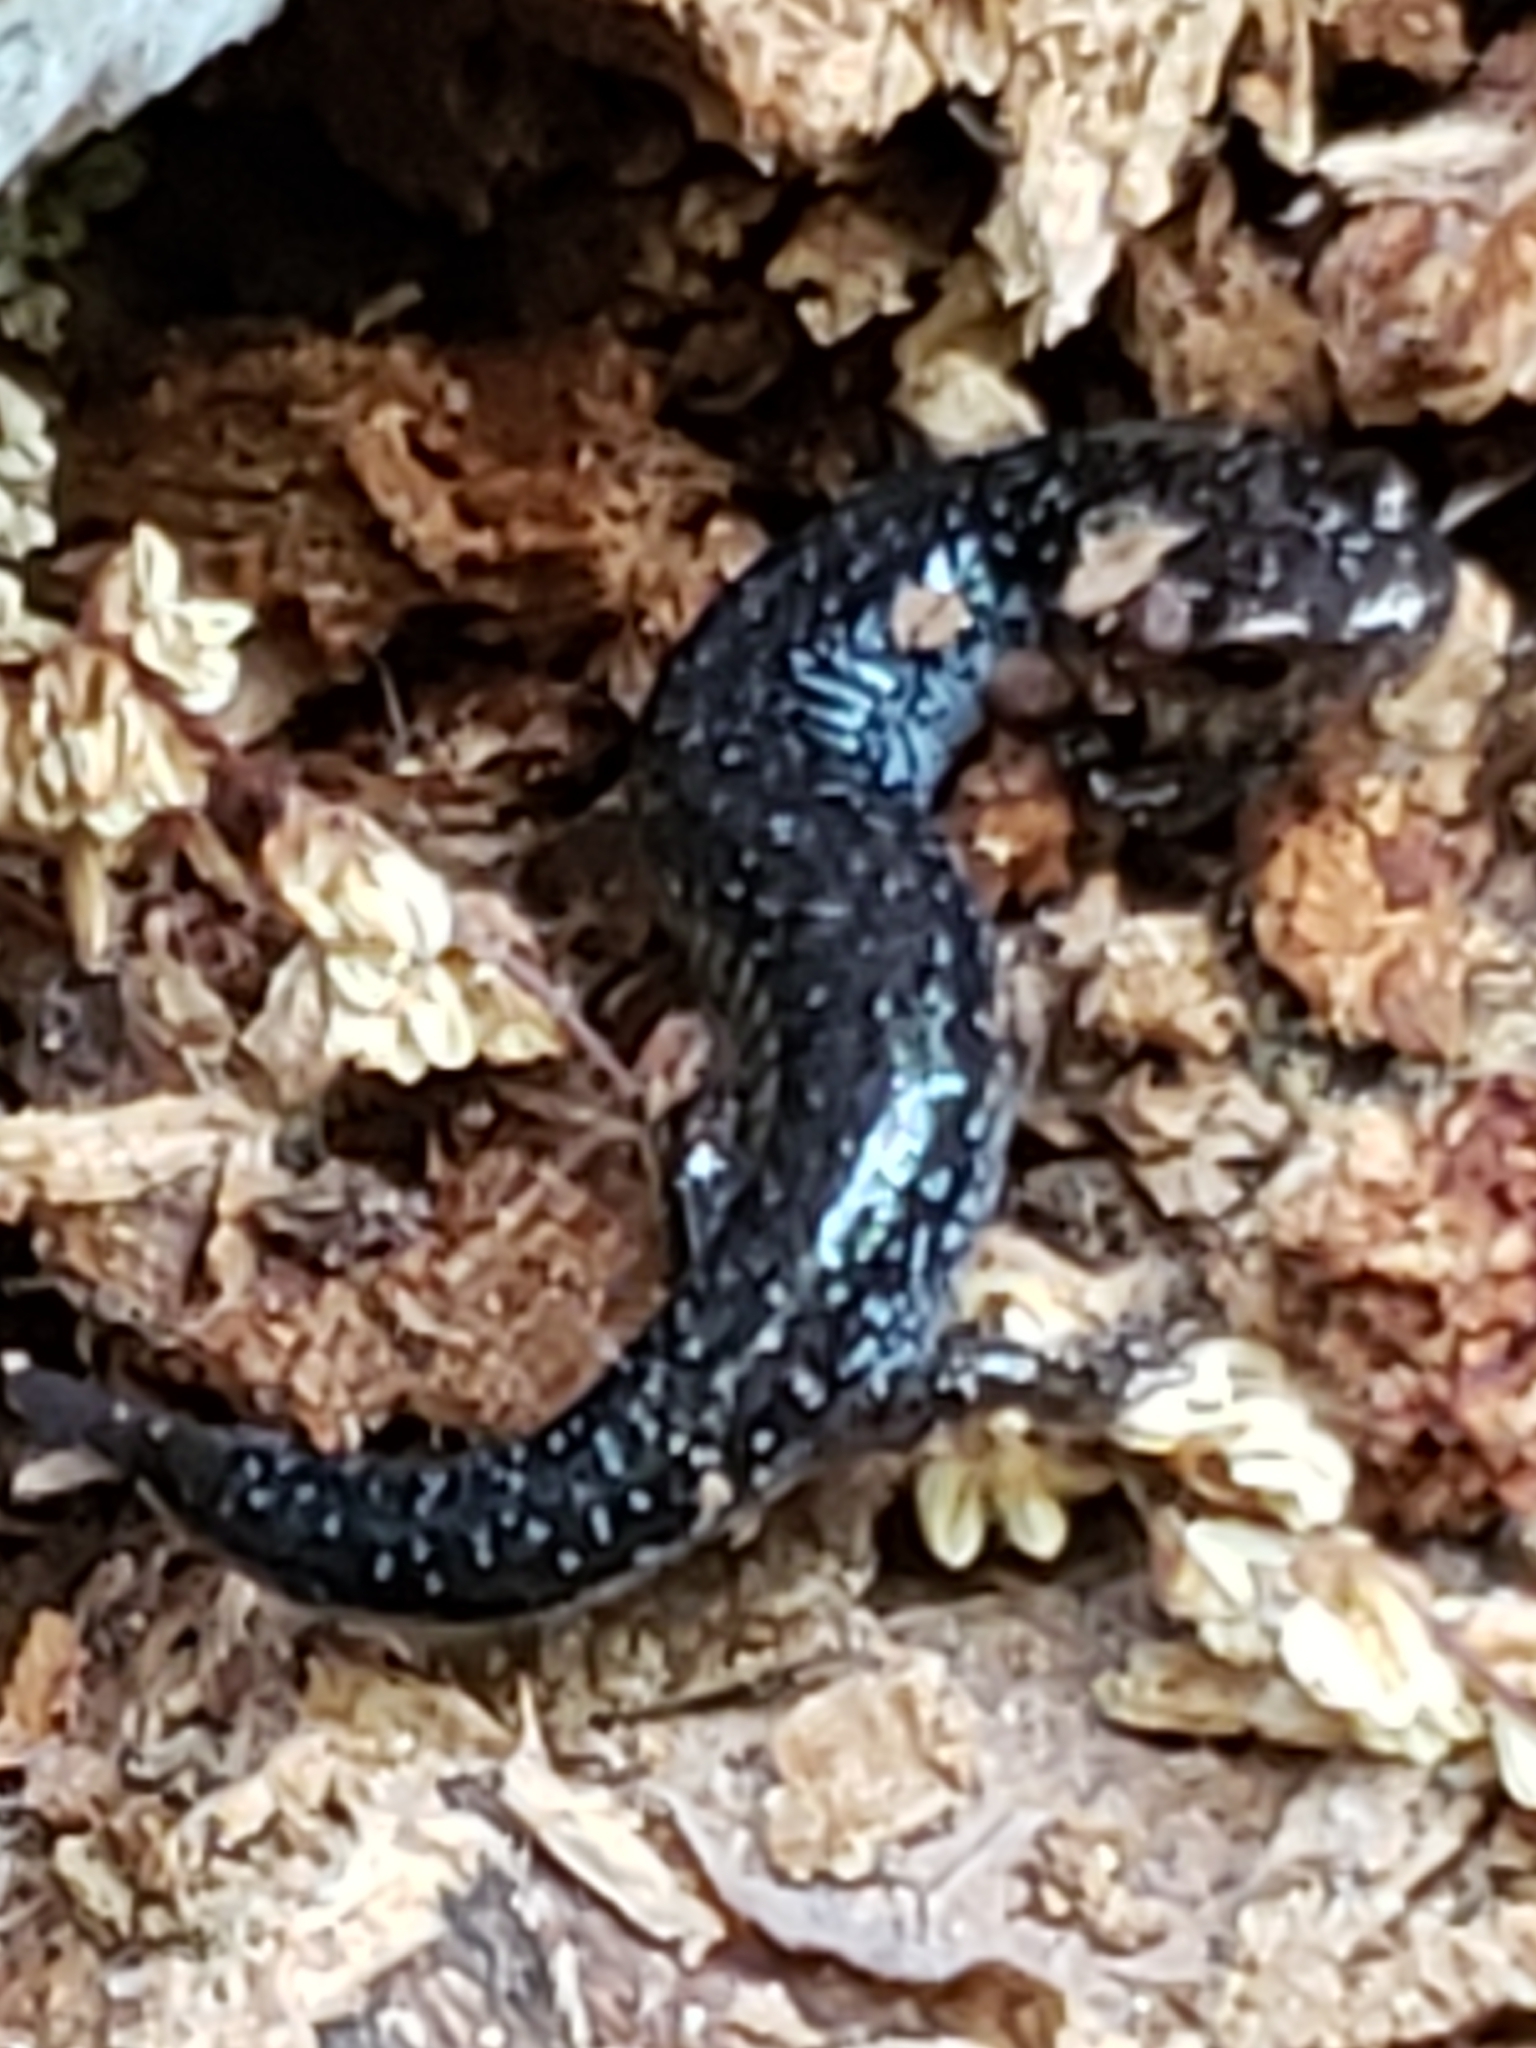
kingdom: Animalia
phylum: Chordata
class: Amphibia
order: Caudata
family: Plethodontidae
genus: Plethodon
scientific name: Plethodon cinereus
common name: Redback salamander
